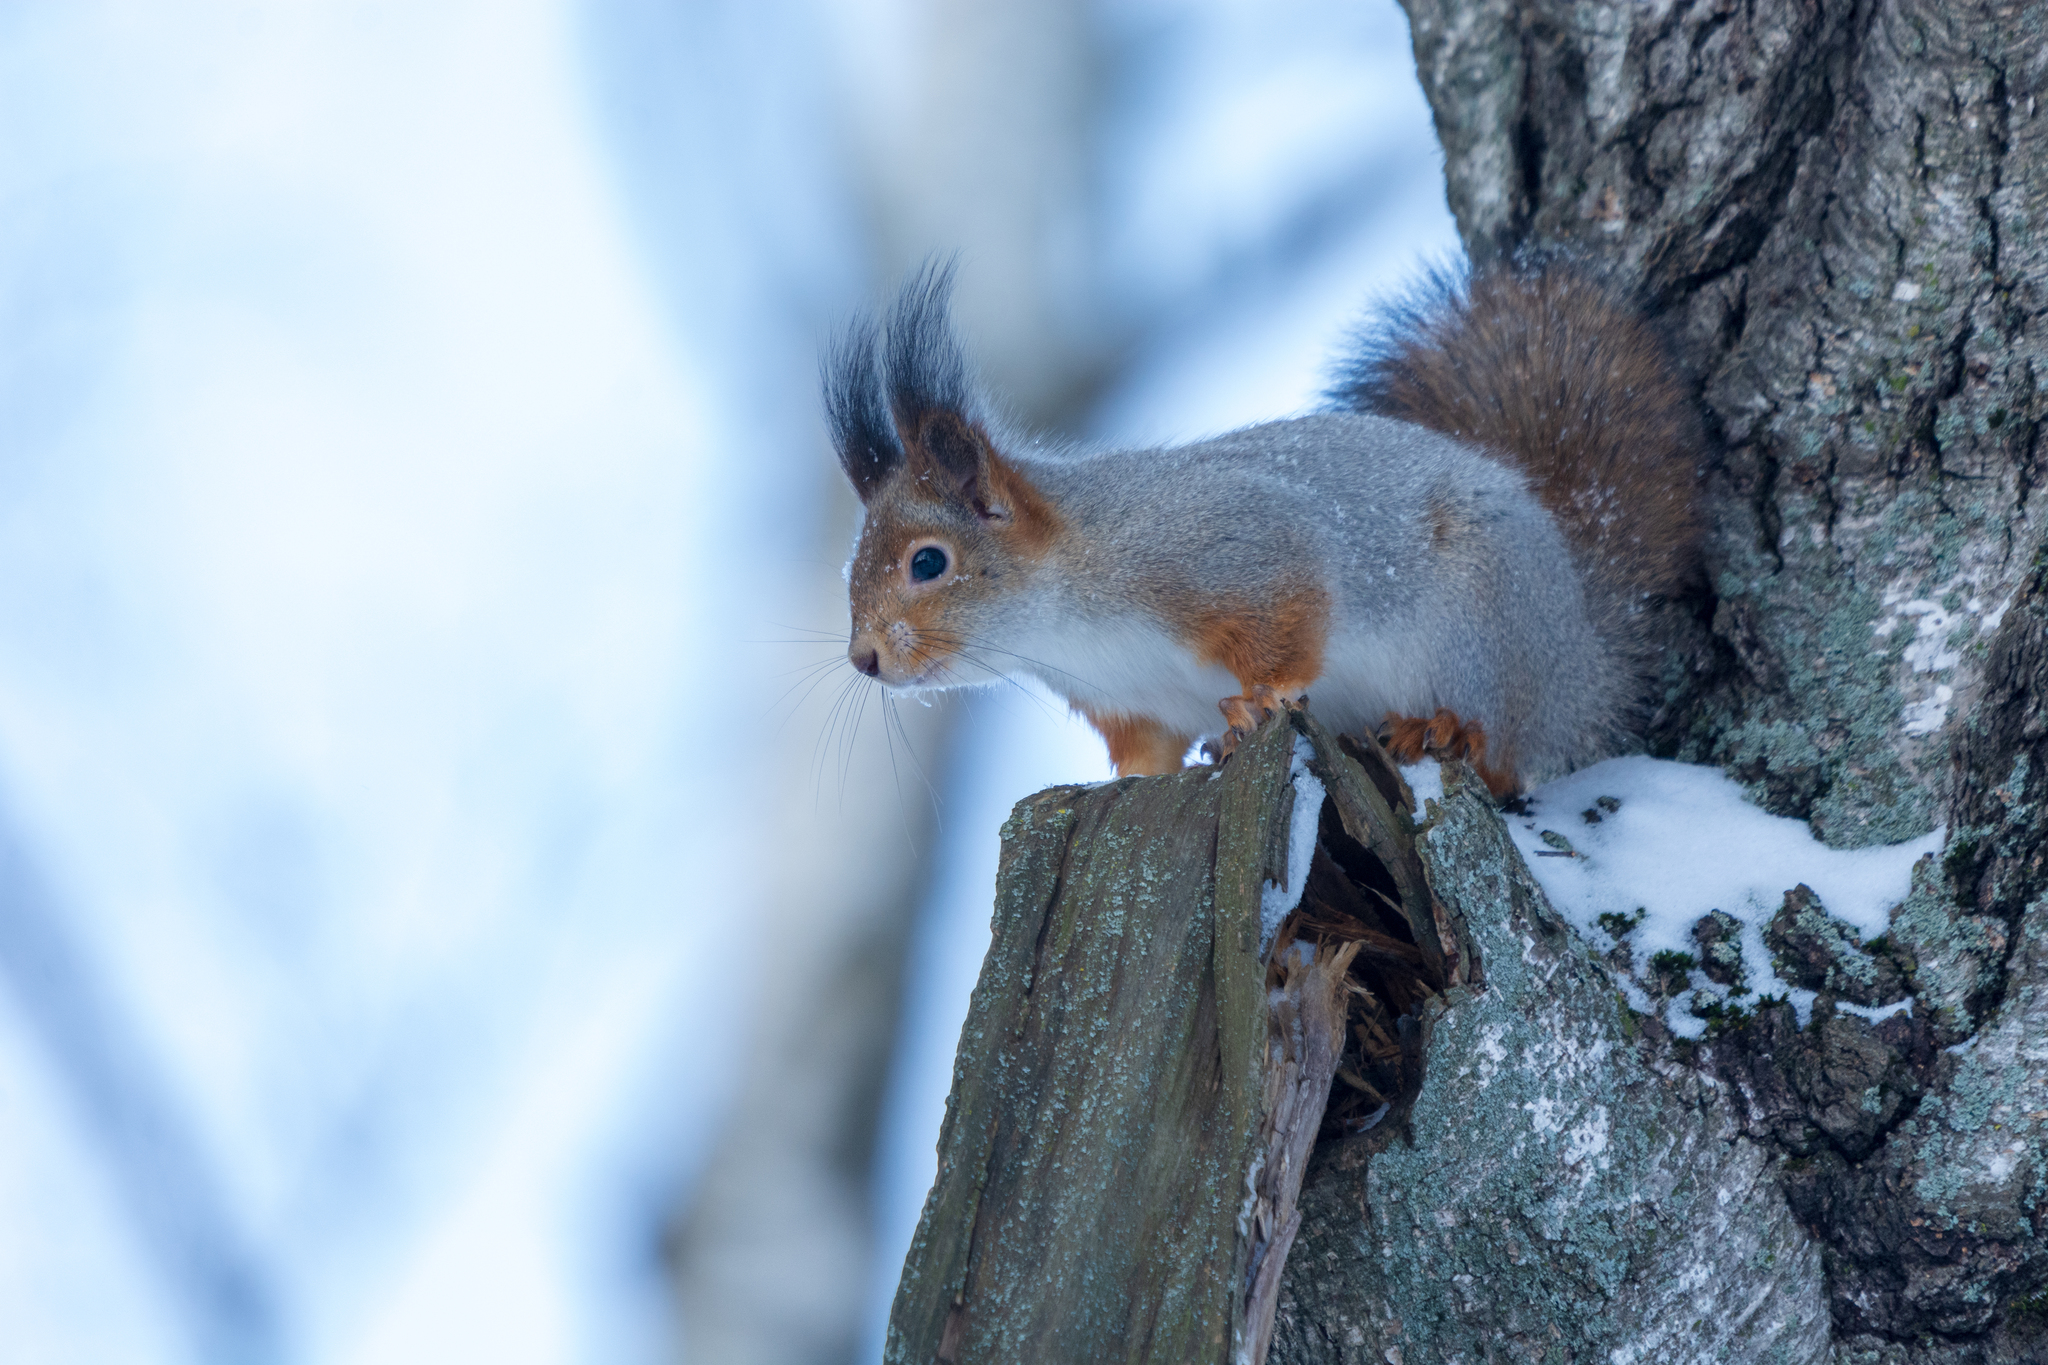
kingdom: Animalia
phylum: Chordata
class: Mammalia
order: Rodentia
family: Sciuridae
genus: Sciurus
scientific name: Sciurus vulgaris
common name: Eurasian red squirrel
